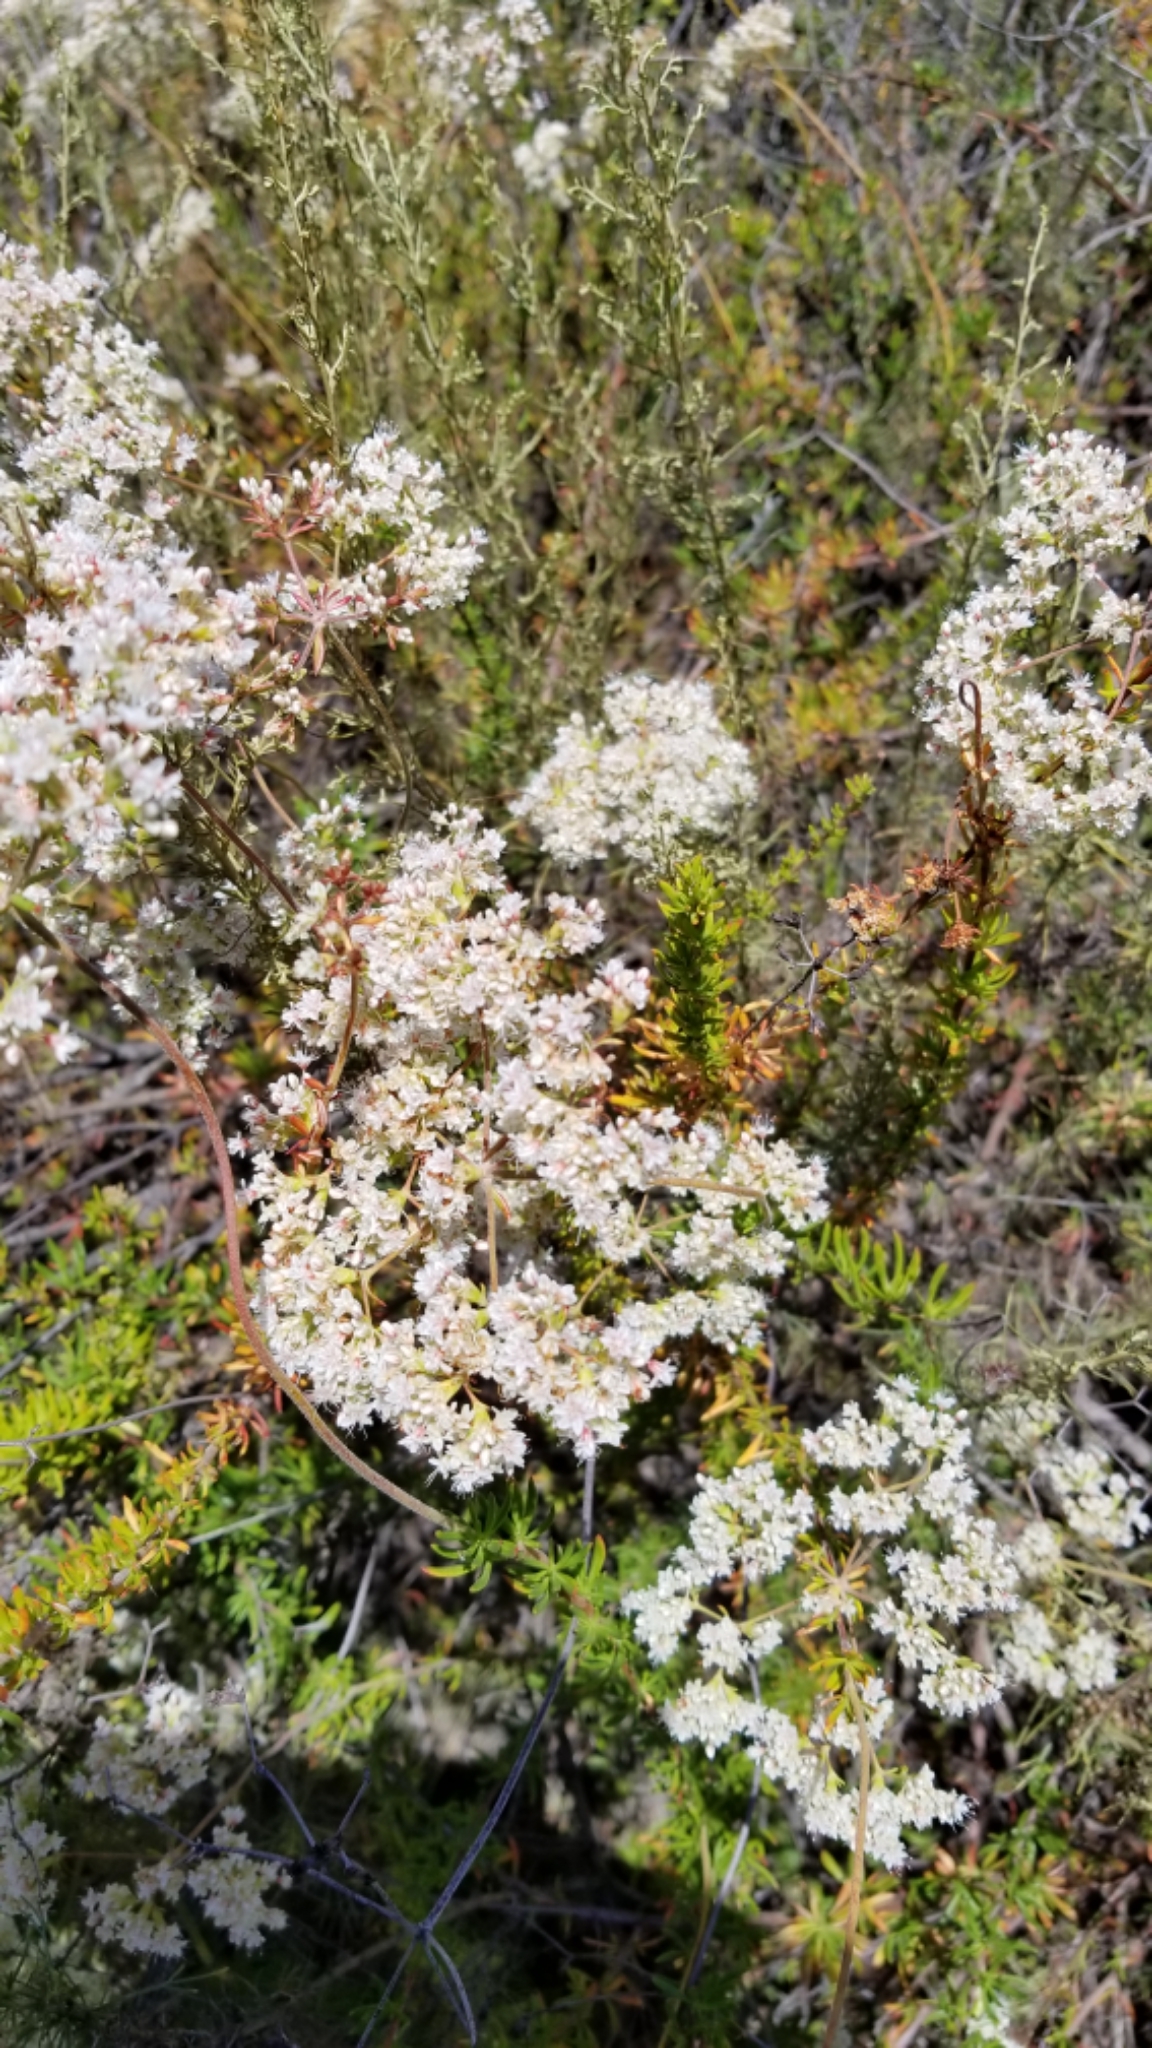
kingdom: Plantae
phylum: Tracheophyta
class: Magnoliopsida
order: Caryophyllales
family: Polygonaceae
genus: Eriogonum
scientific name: Eriogonum fasciculatum
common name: California wild buckwheat
